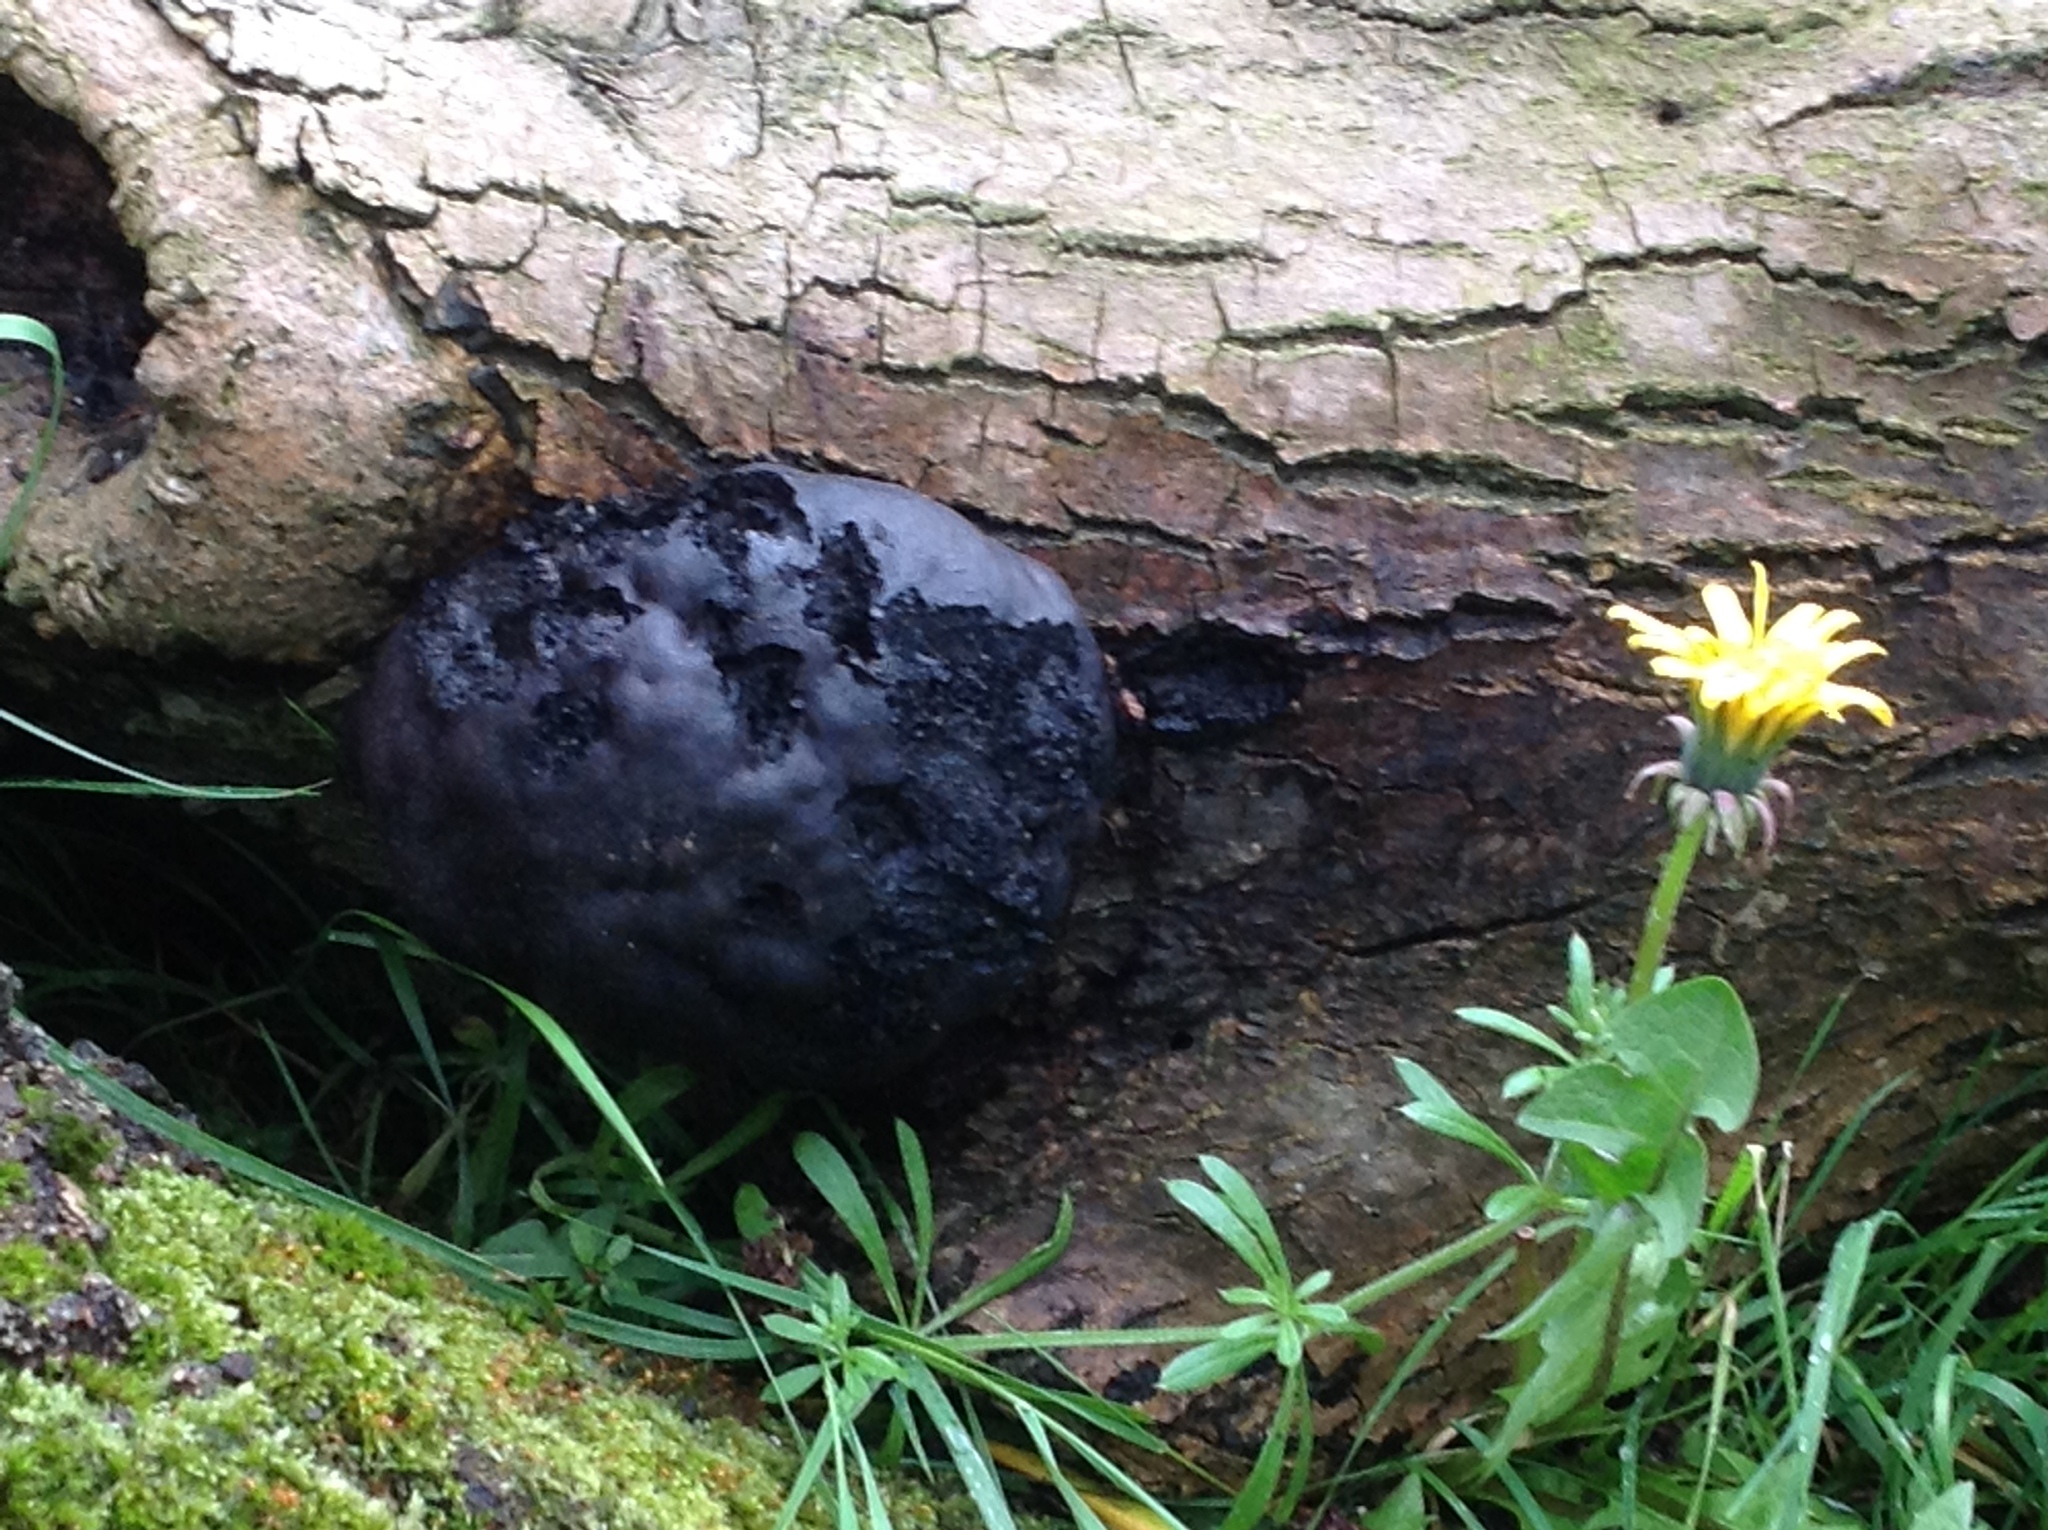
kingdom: Fungi
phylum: Ascomycota
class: Sordariomycetes
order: Xylariales
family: Hypoxylaceae
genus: Daldinia
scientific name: Daldinia concentrica
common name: Cramp balls
